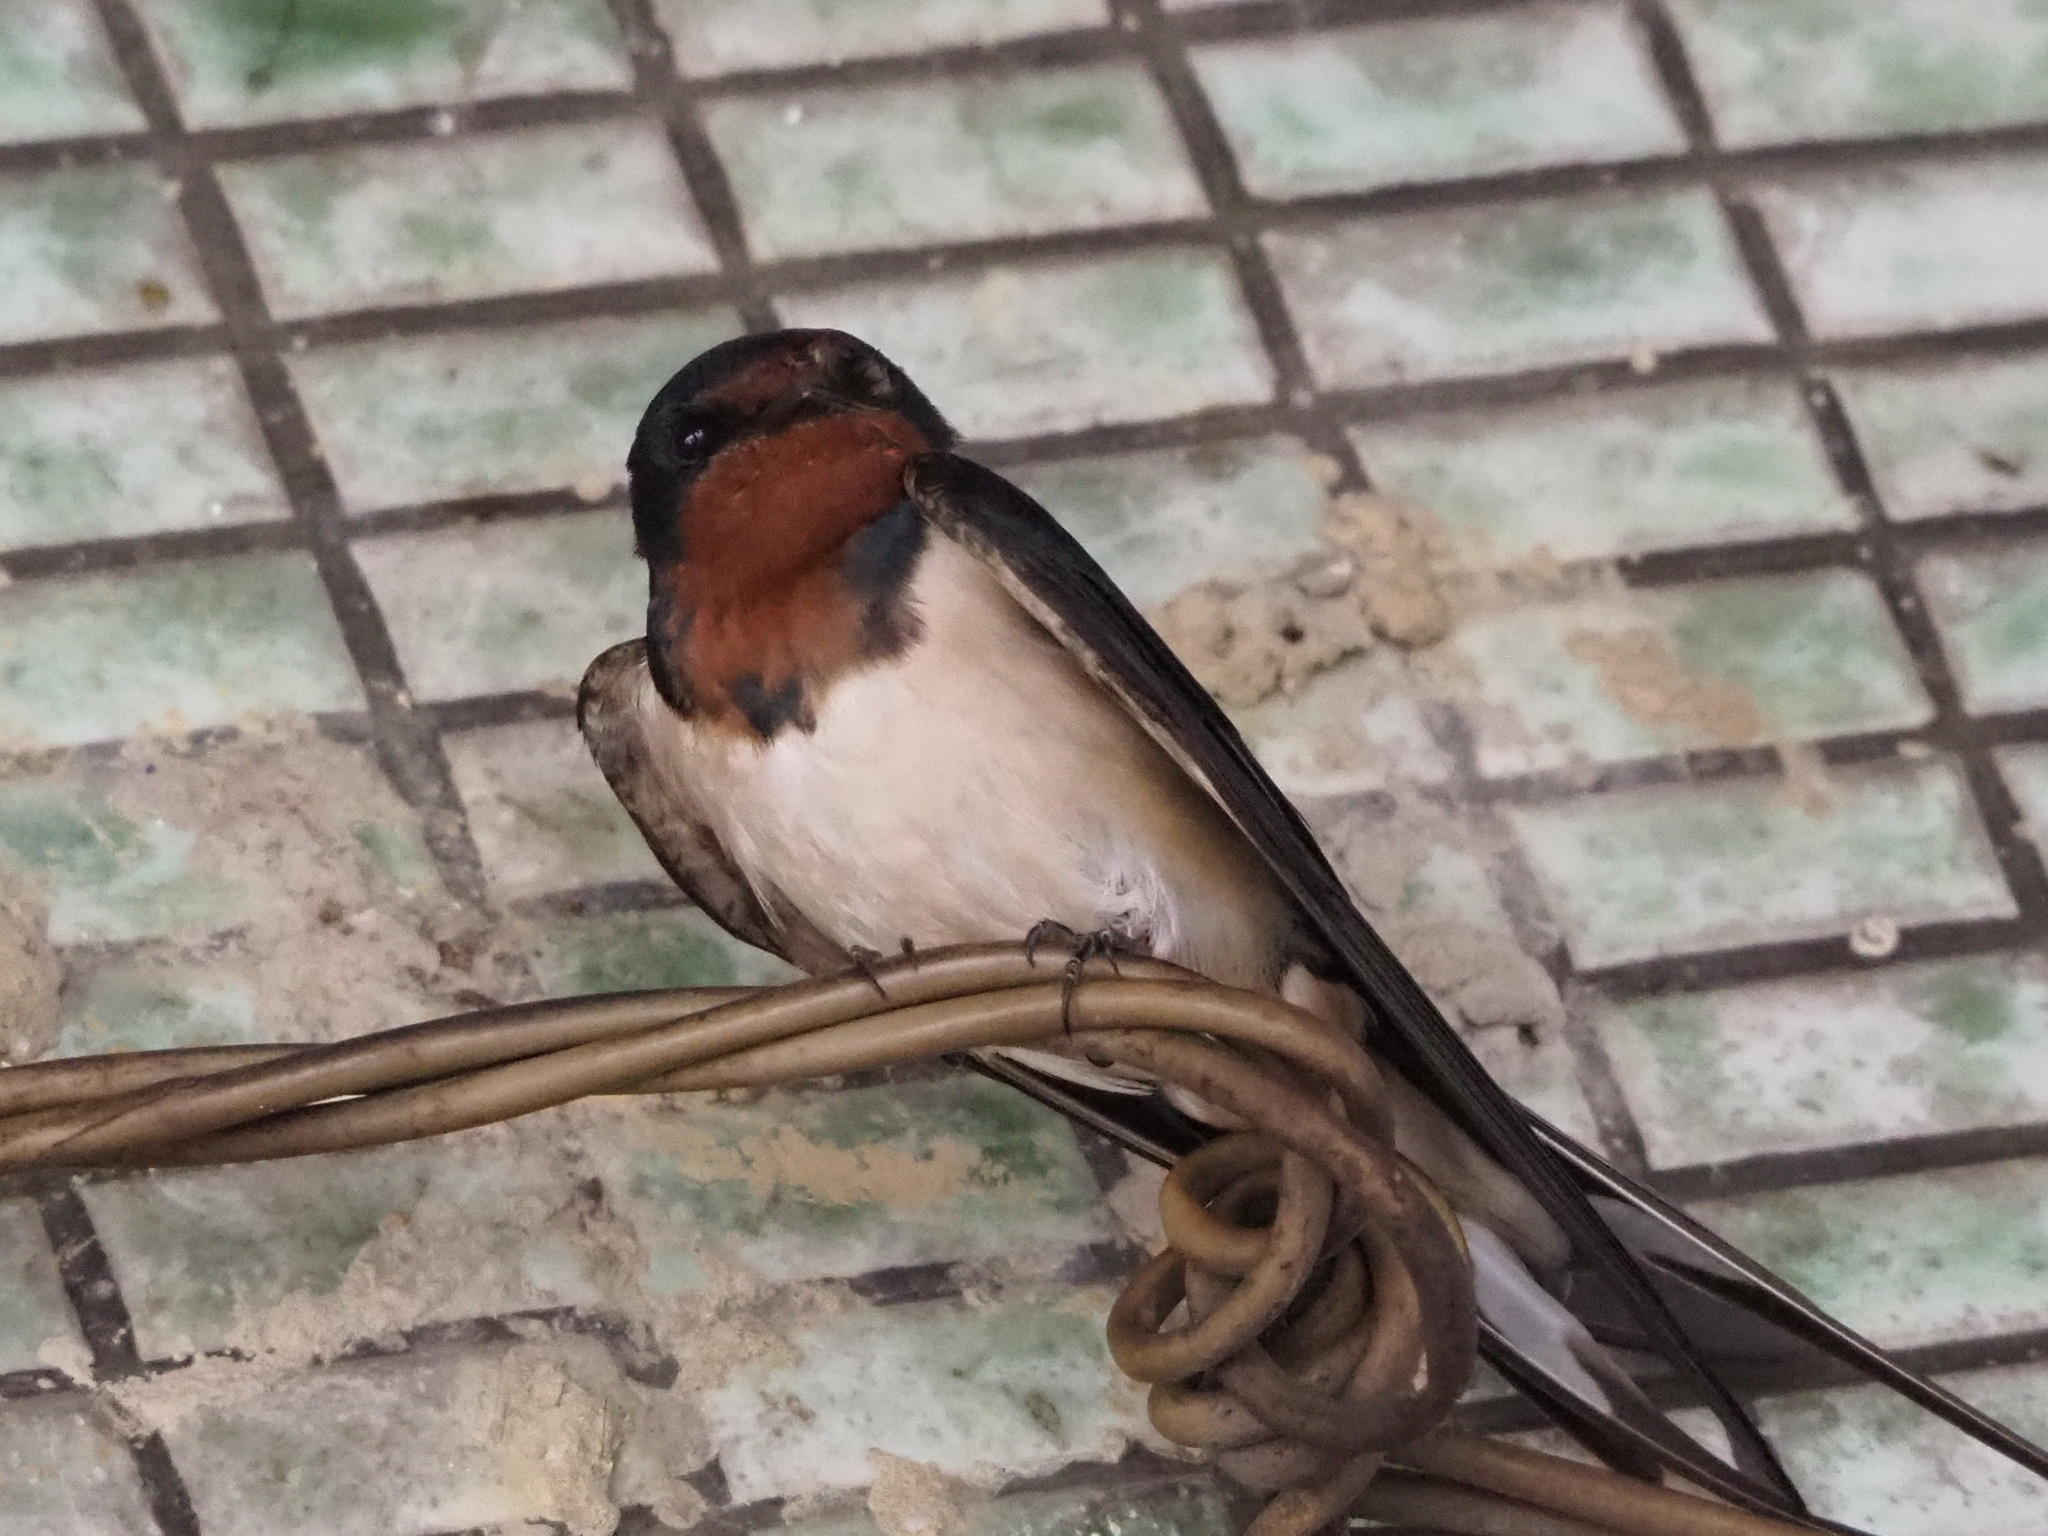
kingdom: Animalia
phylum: Chordata
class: Aves
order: Passeriformes
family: Hirundinidae
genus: Hirundo
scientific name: Hirundo rustica
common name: Barn swallow
